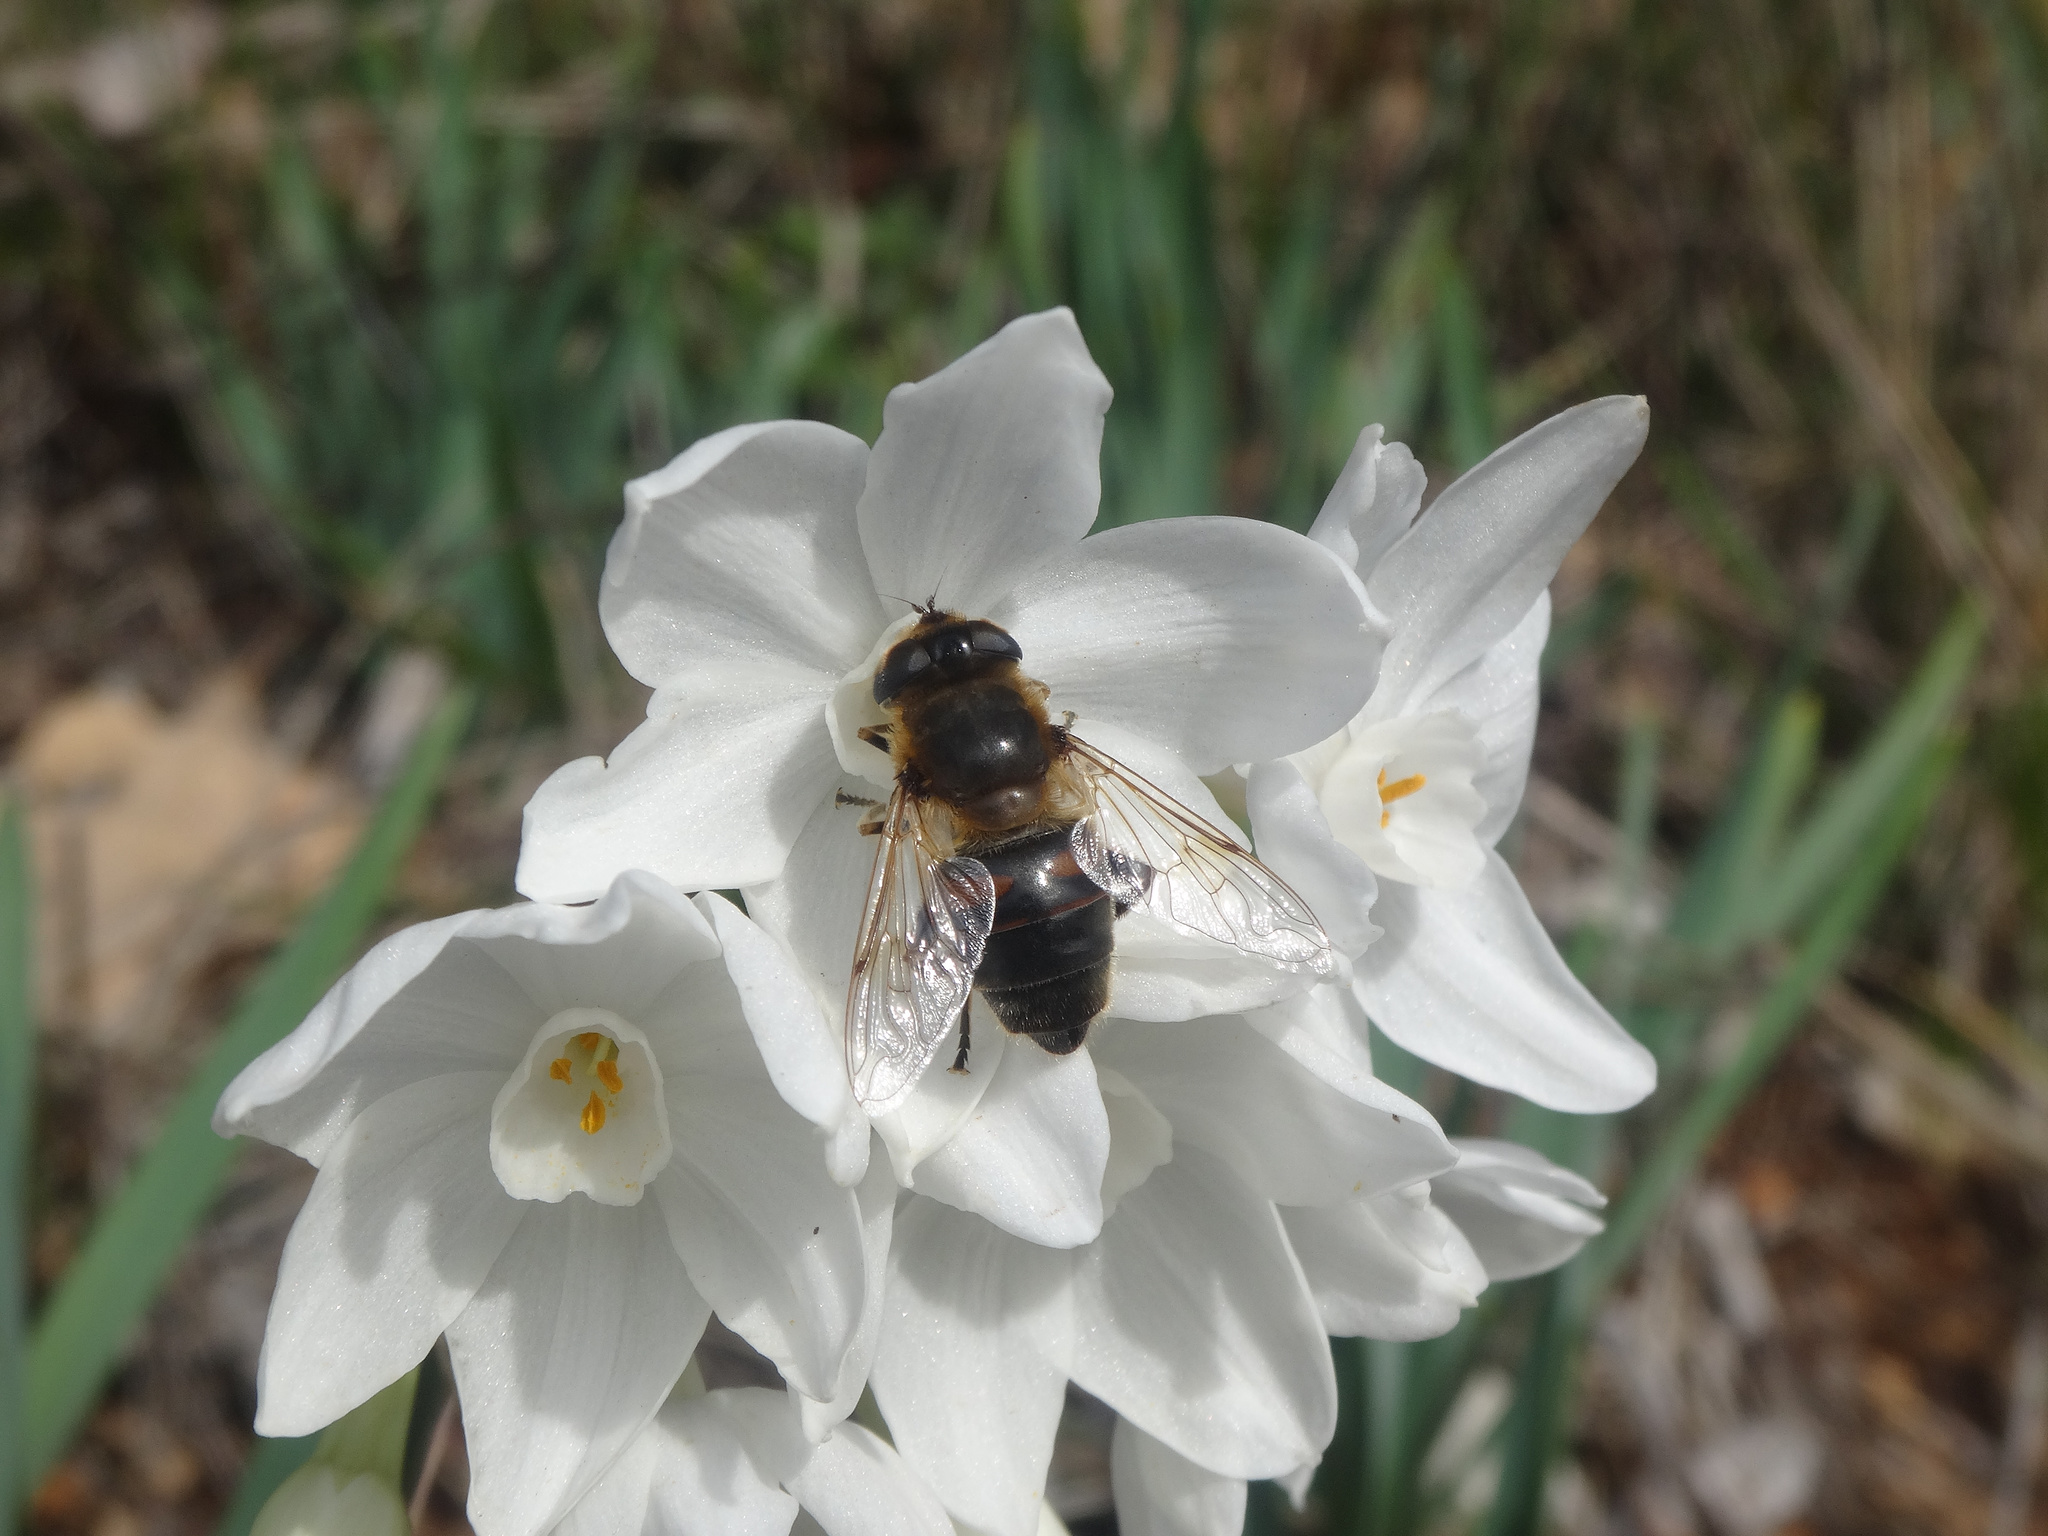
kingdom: Animalia
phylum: Arthropoda
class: Insecta
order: Diptera
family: Syrphidae
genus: Eristalis
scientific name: Eristalis tenax
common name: Drone fly
